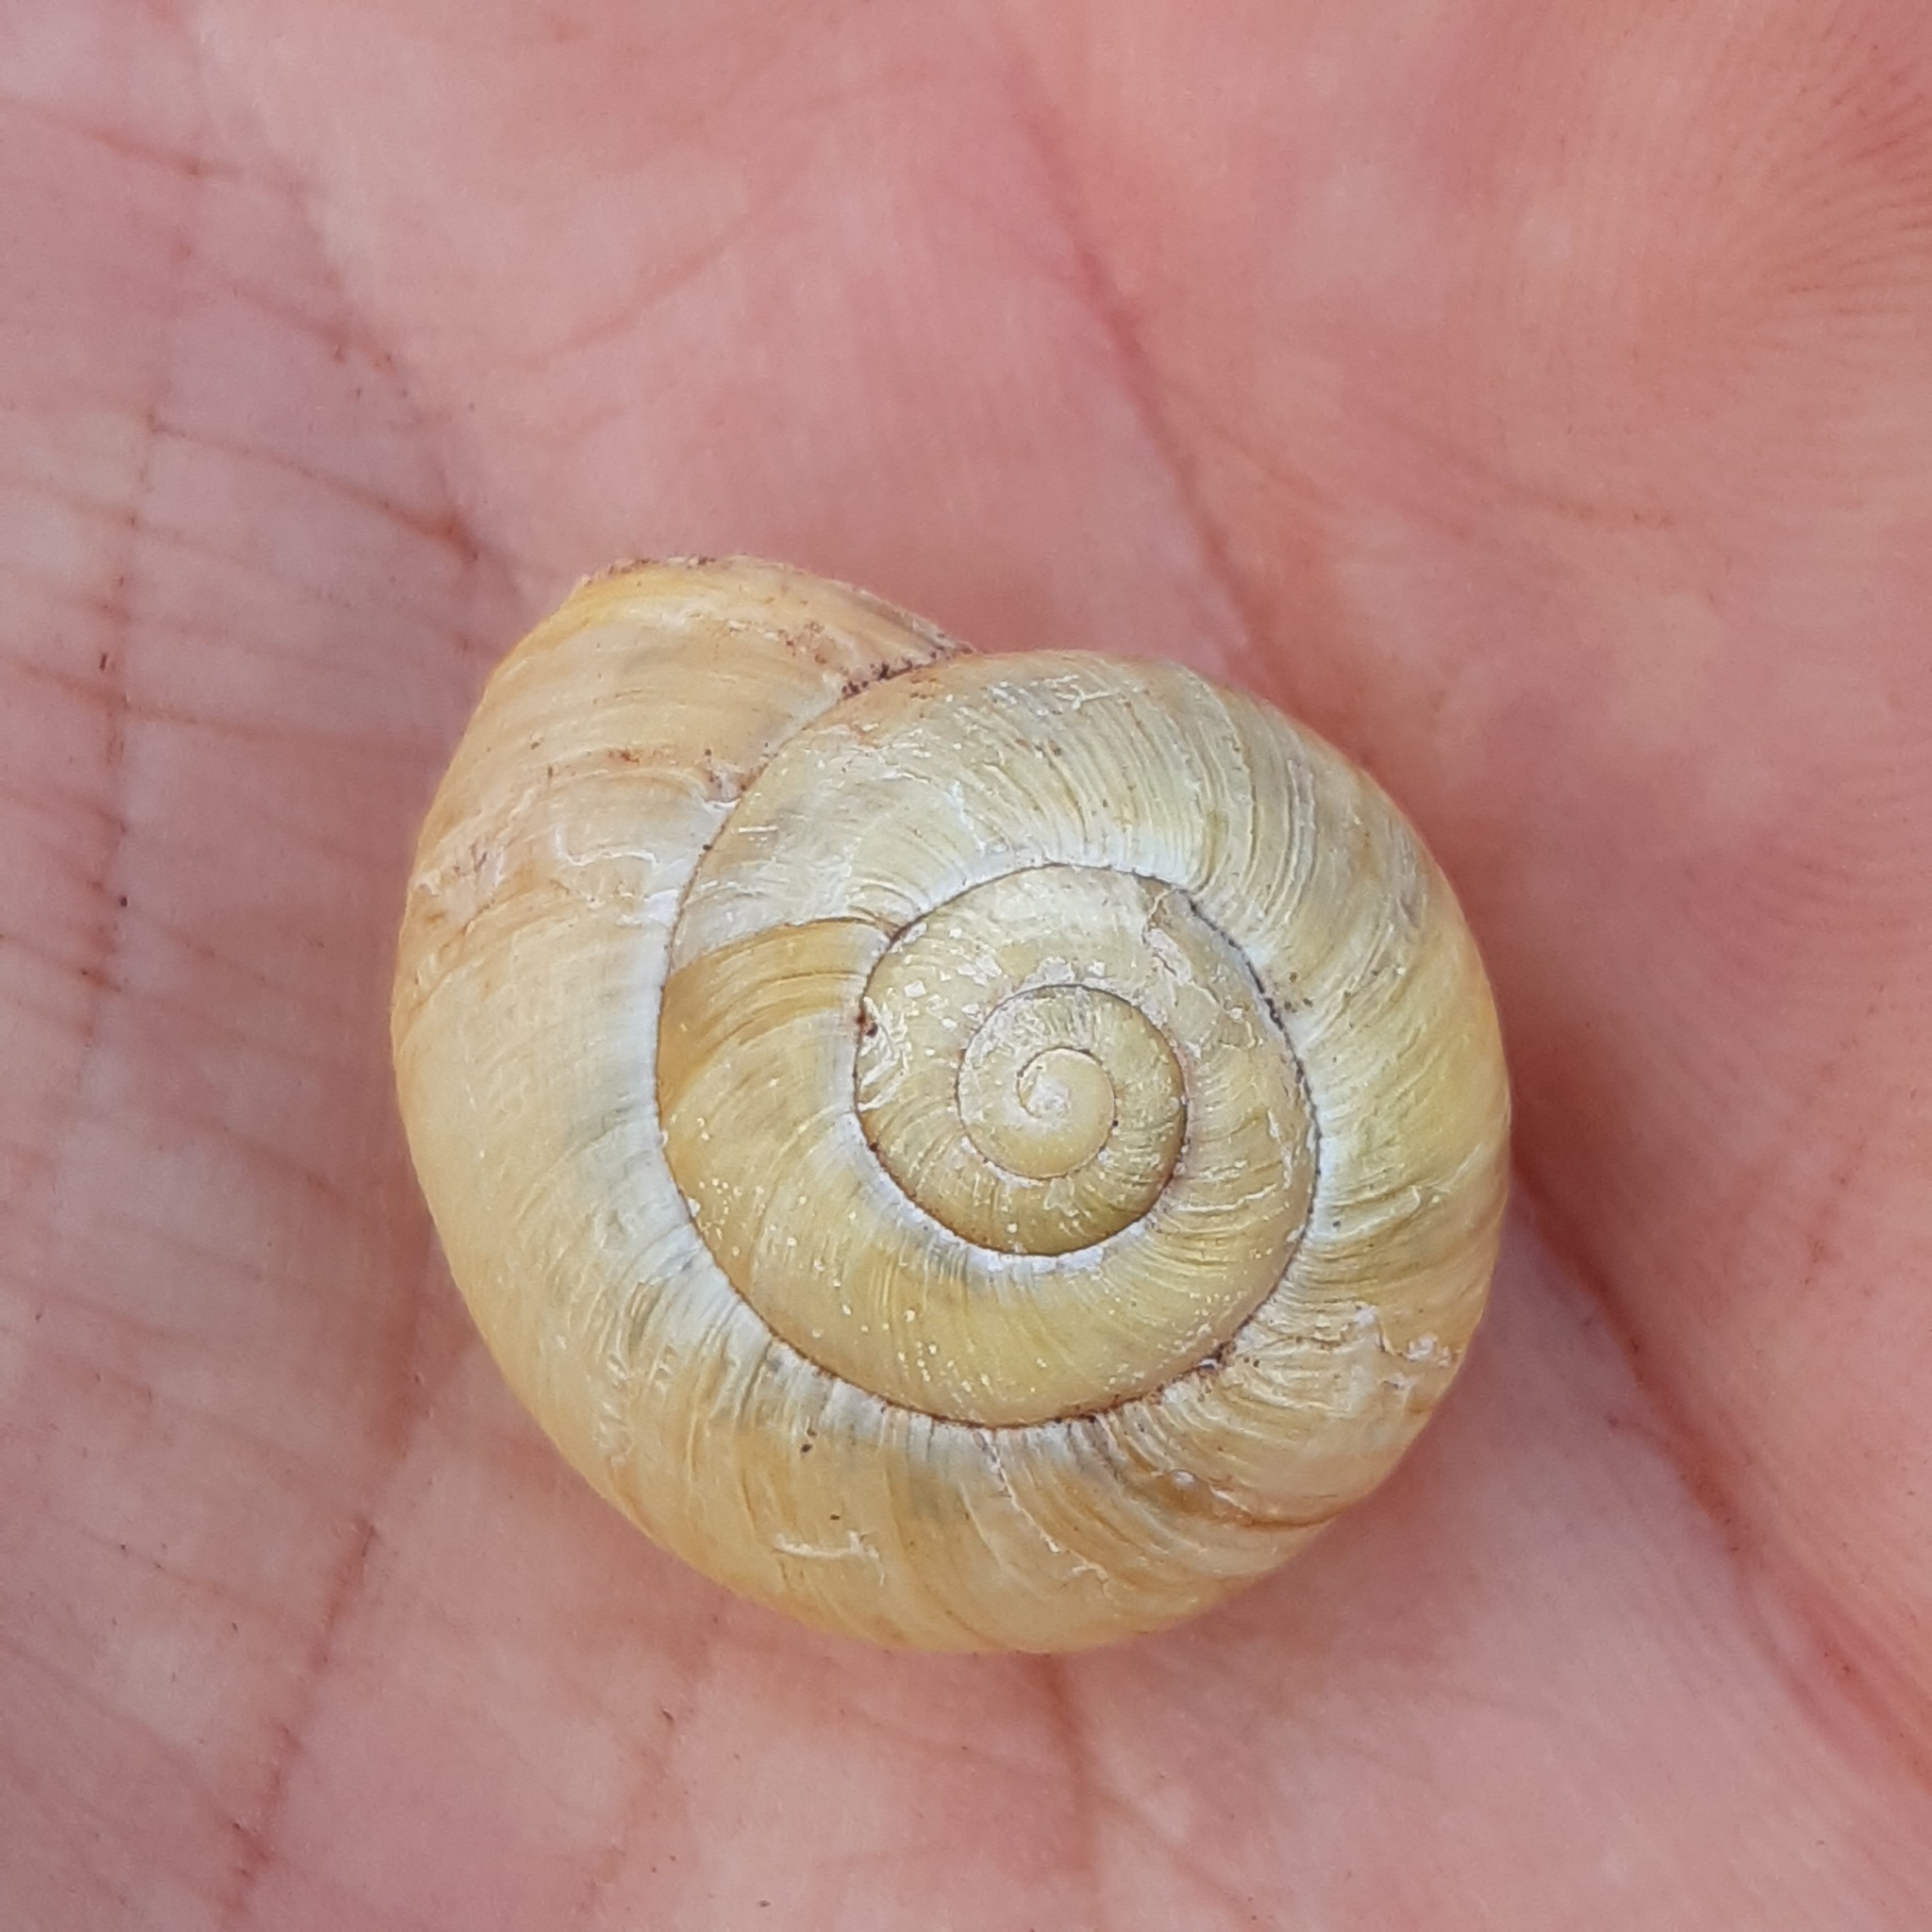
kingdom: Animalia
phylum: Mollusca
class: Gastropoda
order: Stylommatophora
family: Helicidae
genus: Cepaea
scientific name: Cepaea nemoralis
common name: Grovesnail
